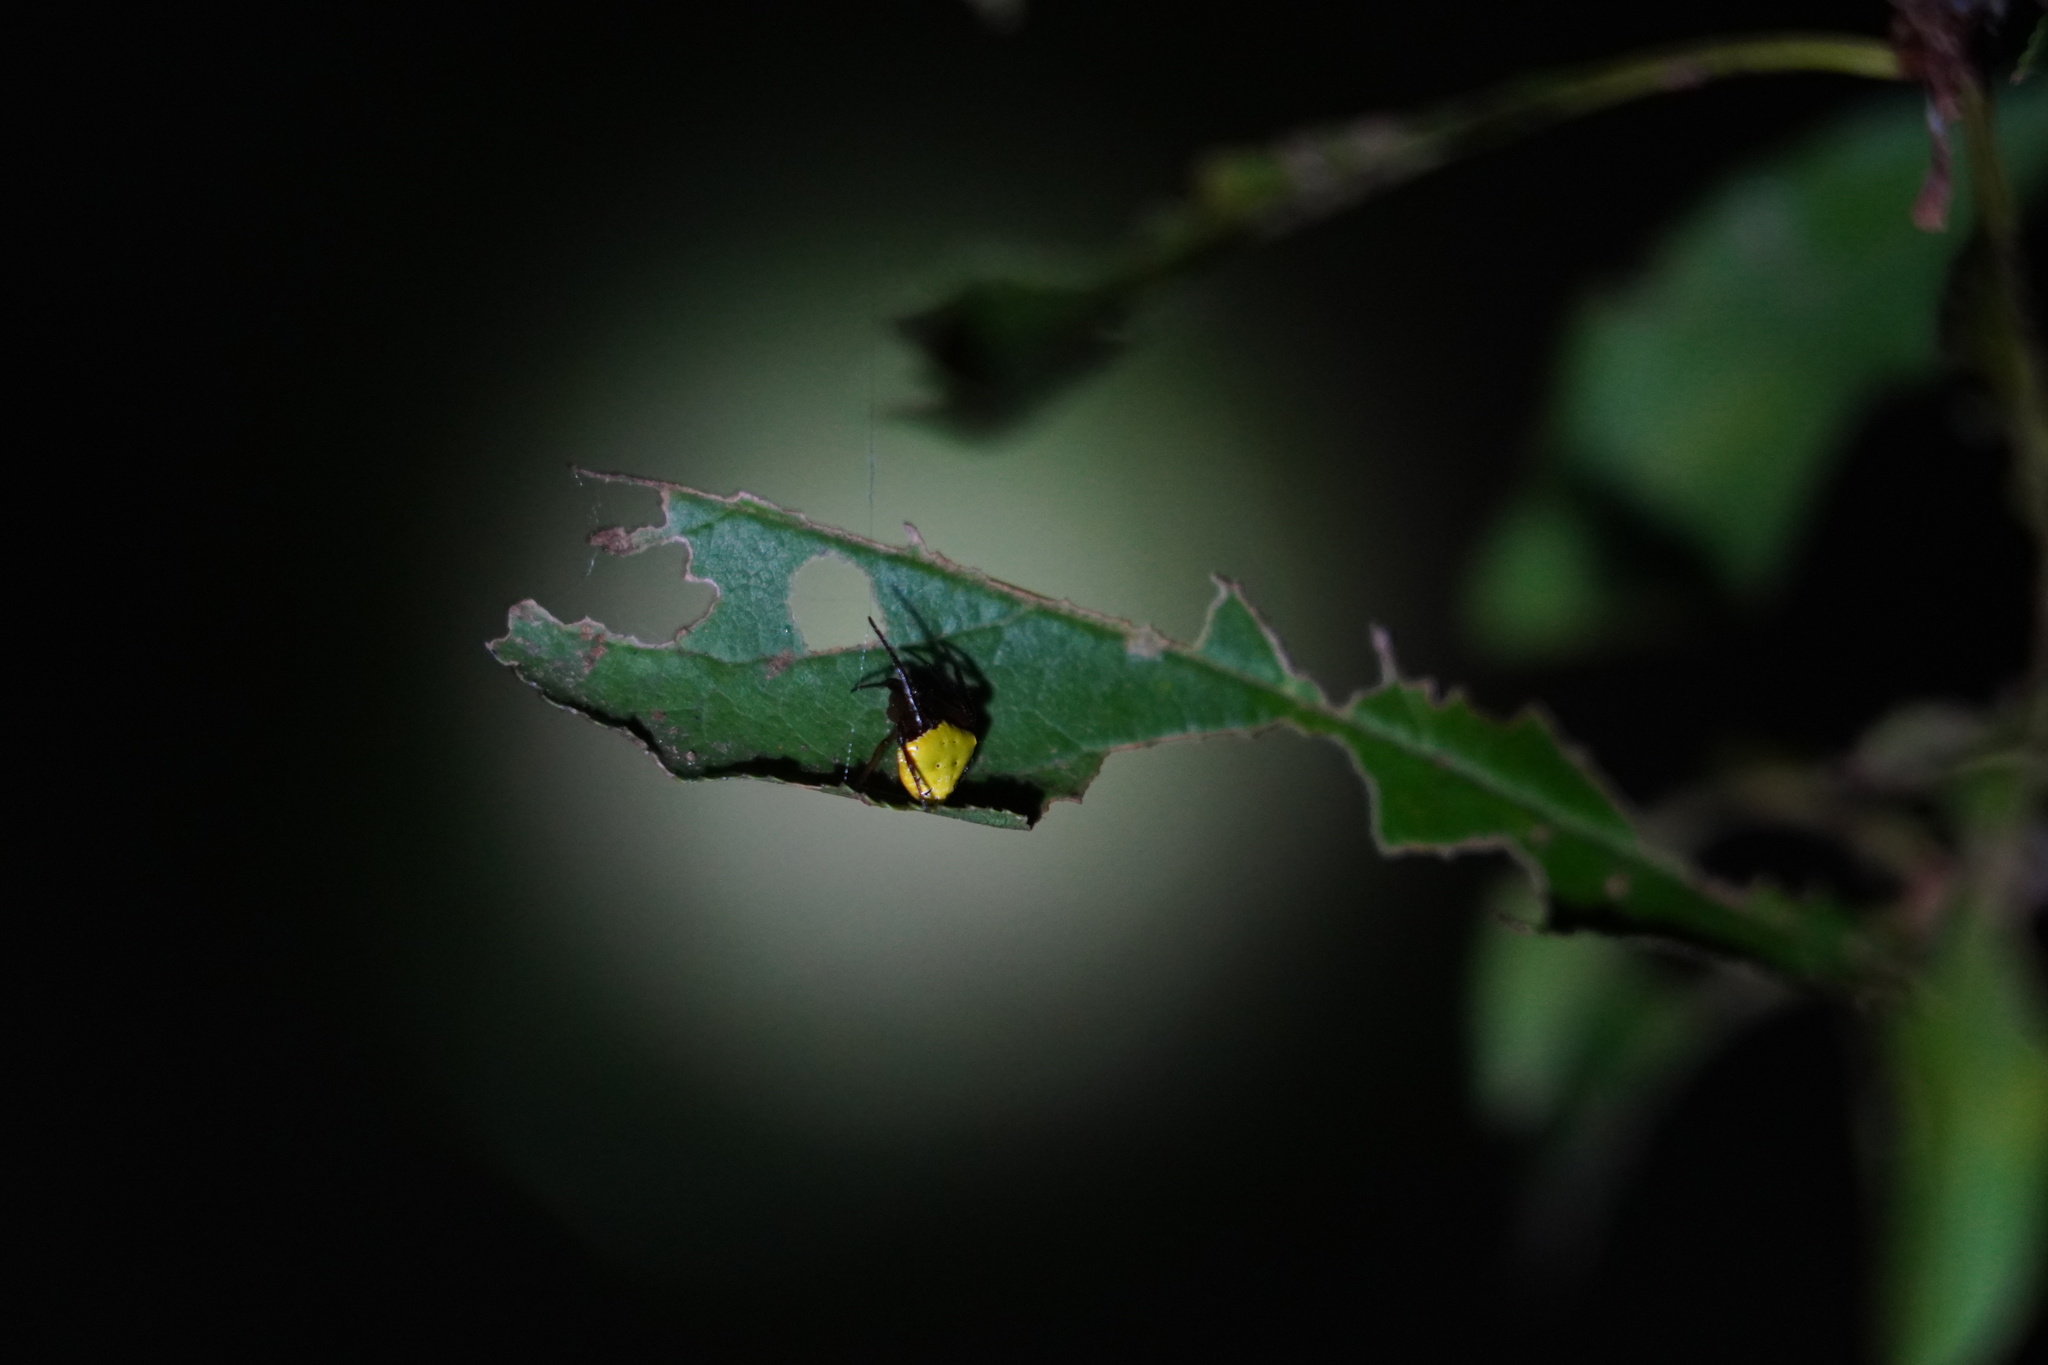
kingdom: Animalia
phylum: Arthropoda
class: Arachnida
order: Araneae
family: Araneidae
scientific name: Araneidae
